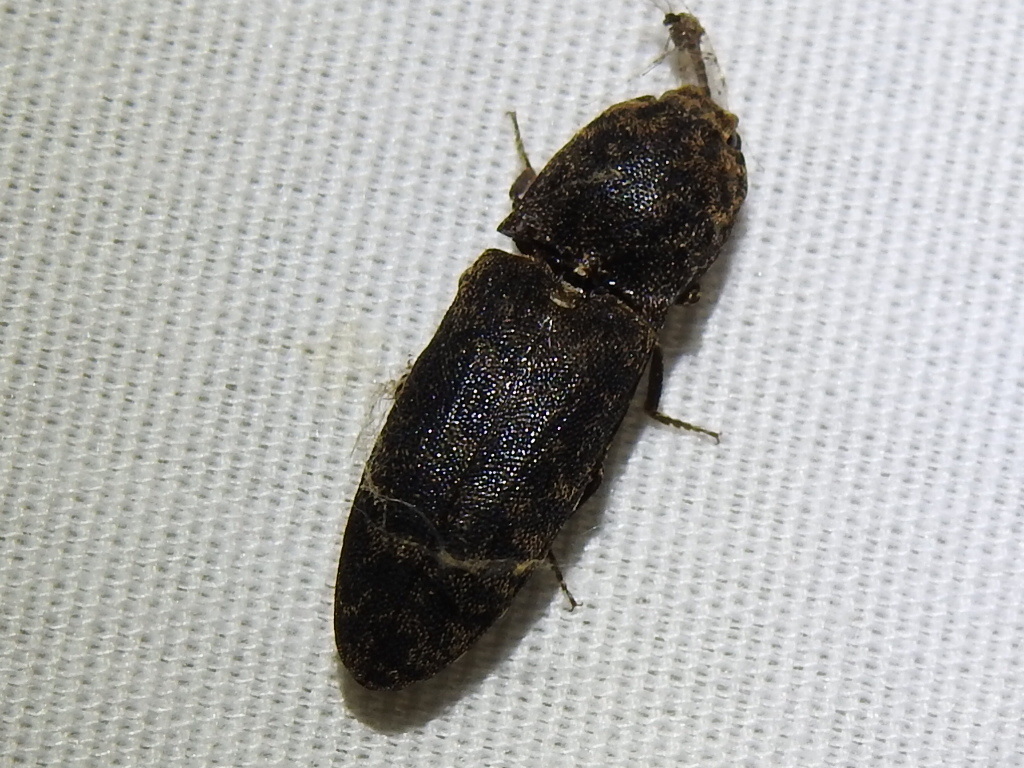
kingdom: Animalia
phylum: Arthropoda
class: Insecta
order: Coleoptera
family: Elateridae
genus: Lacon
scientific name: Lacon marmoratus
